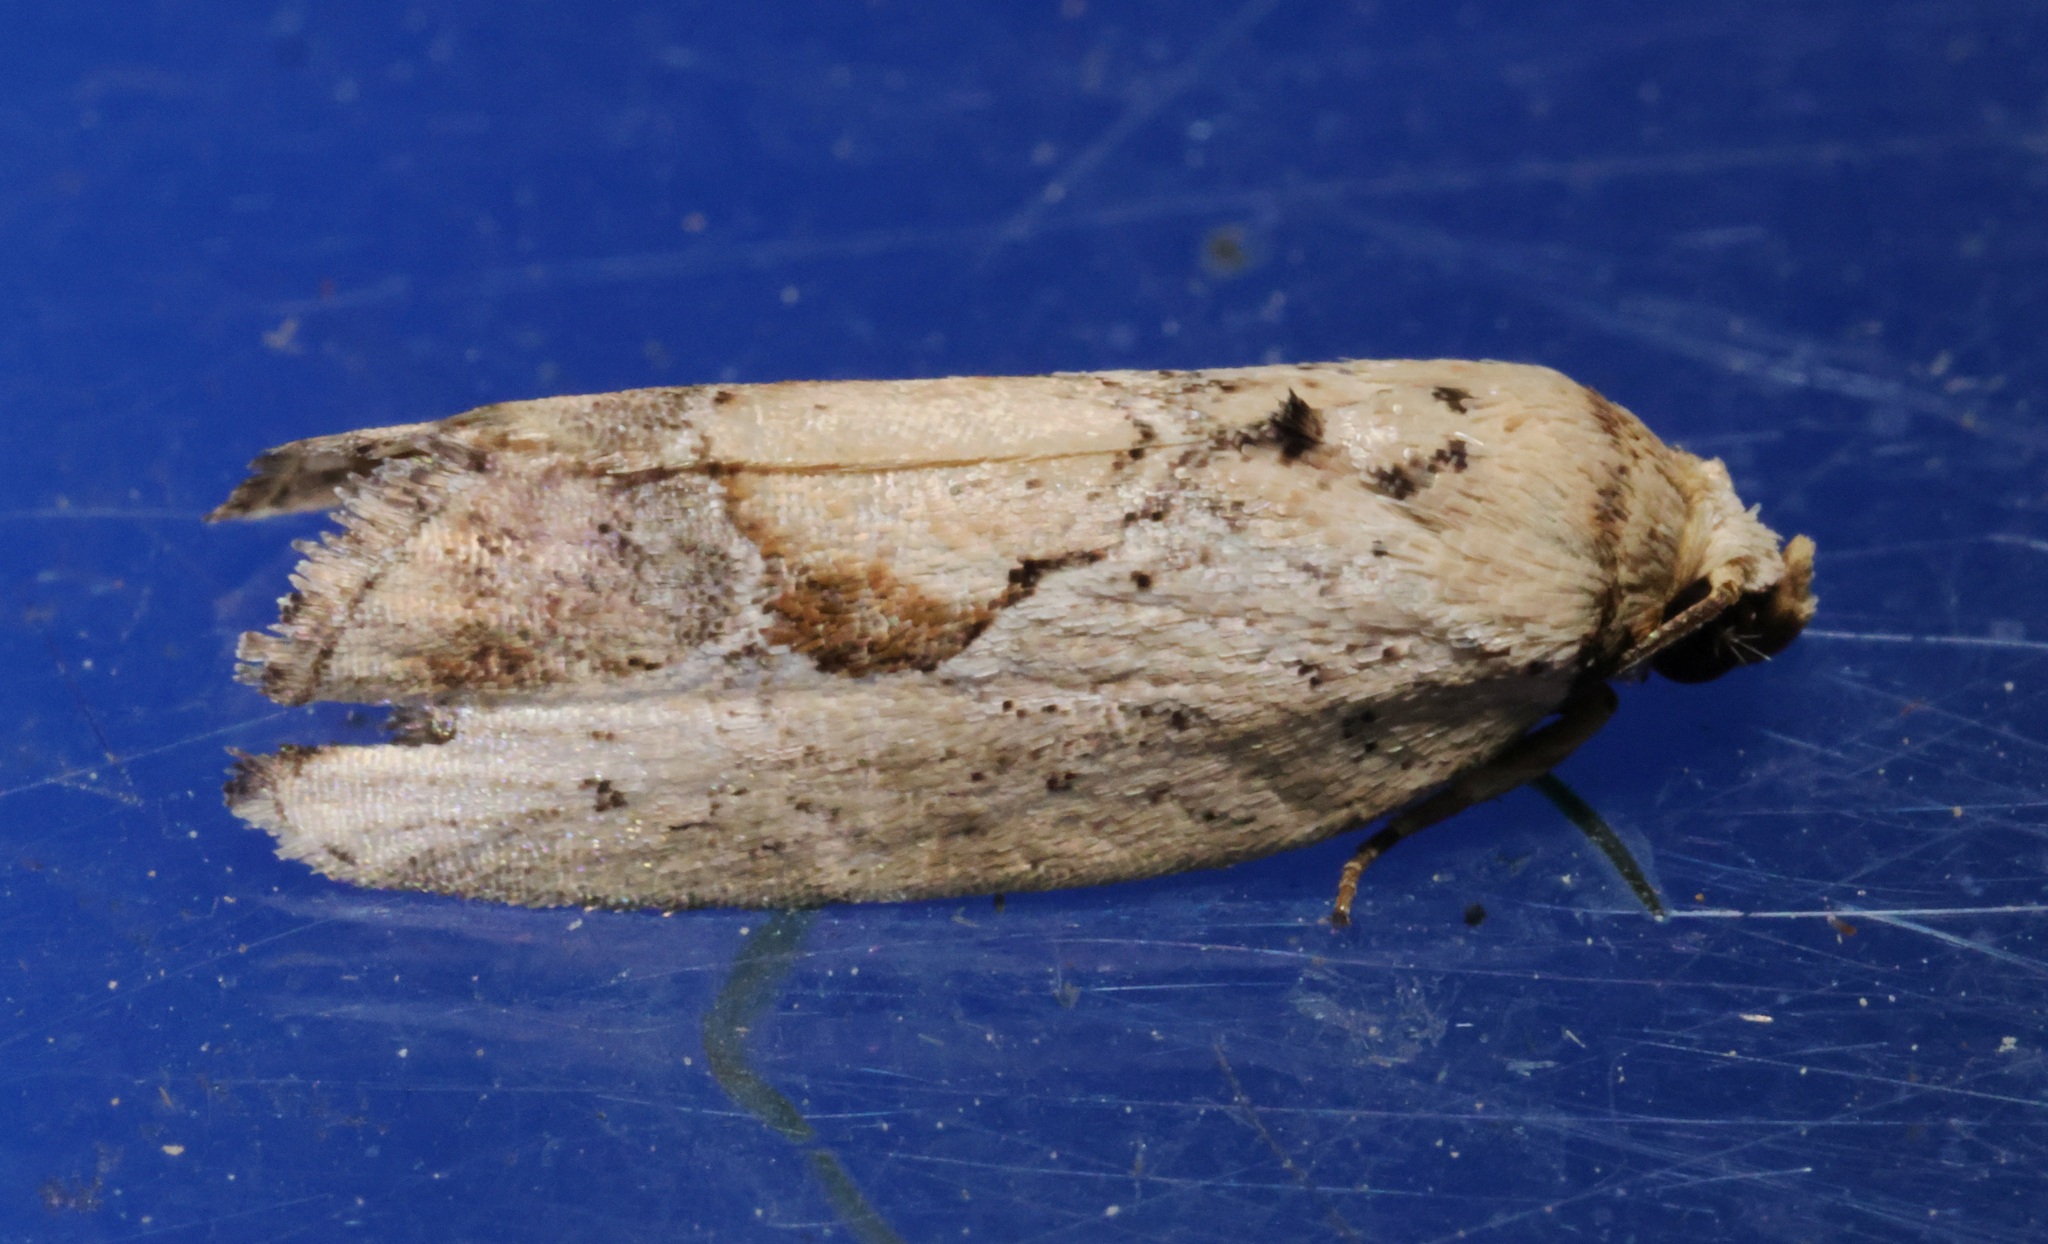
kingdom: Animalia
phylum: Arthropoda
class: Insecta
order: Lepidoptera
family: Noctuidae
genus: Strotihypera
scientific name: Strotihypera macroplaga
